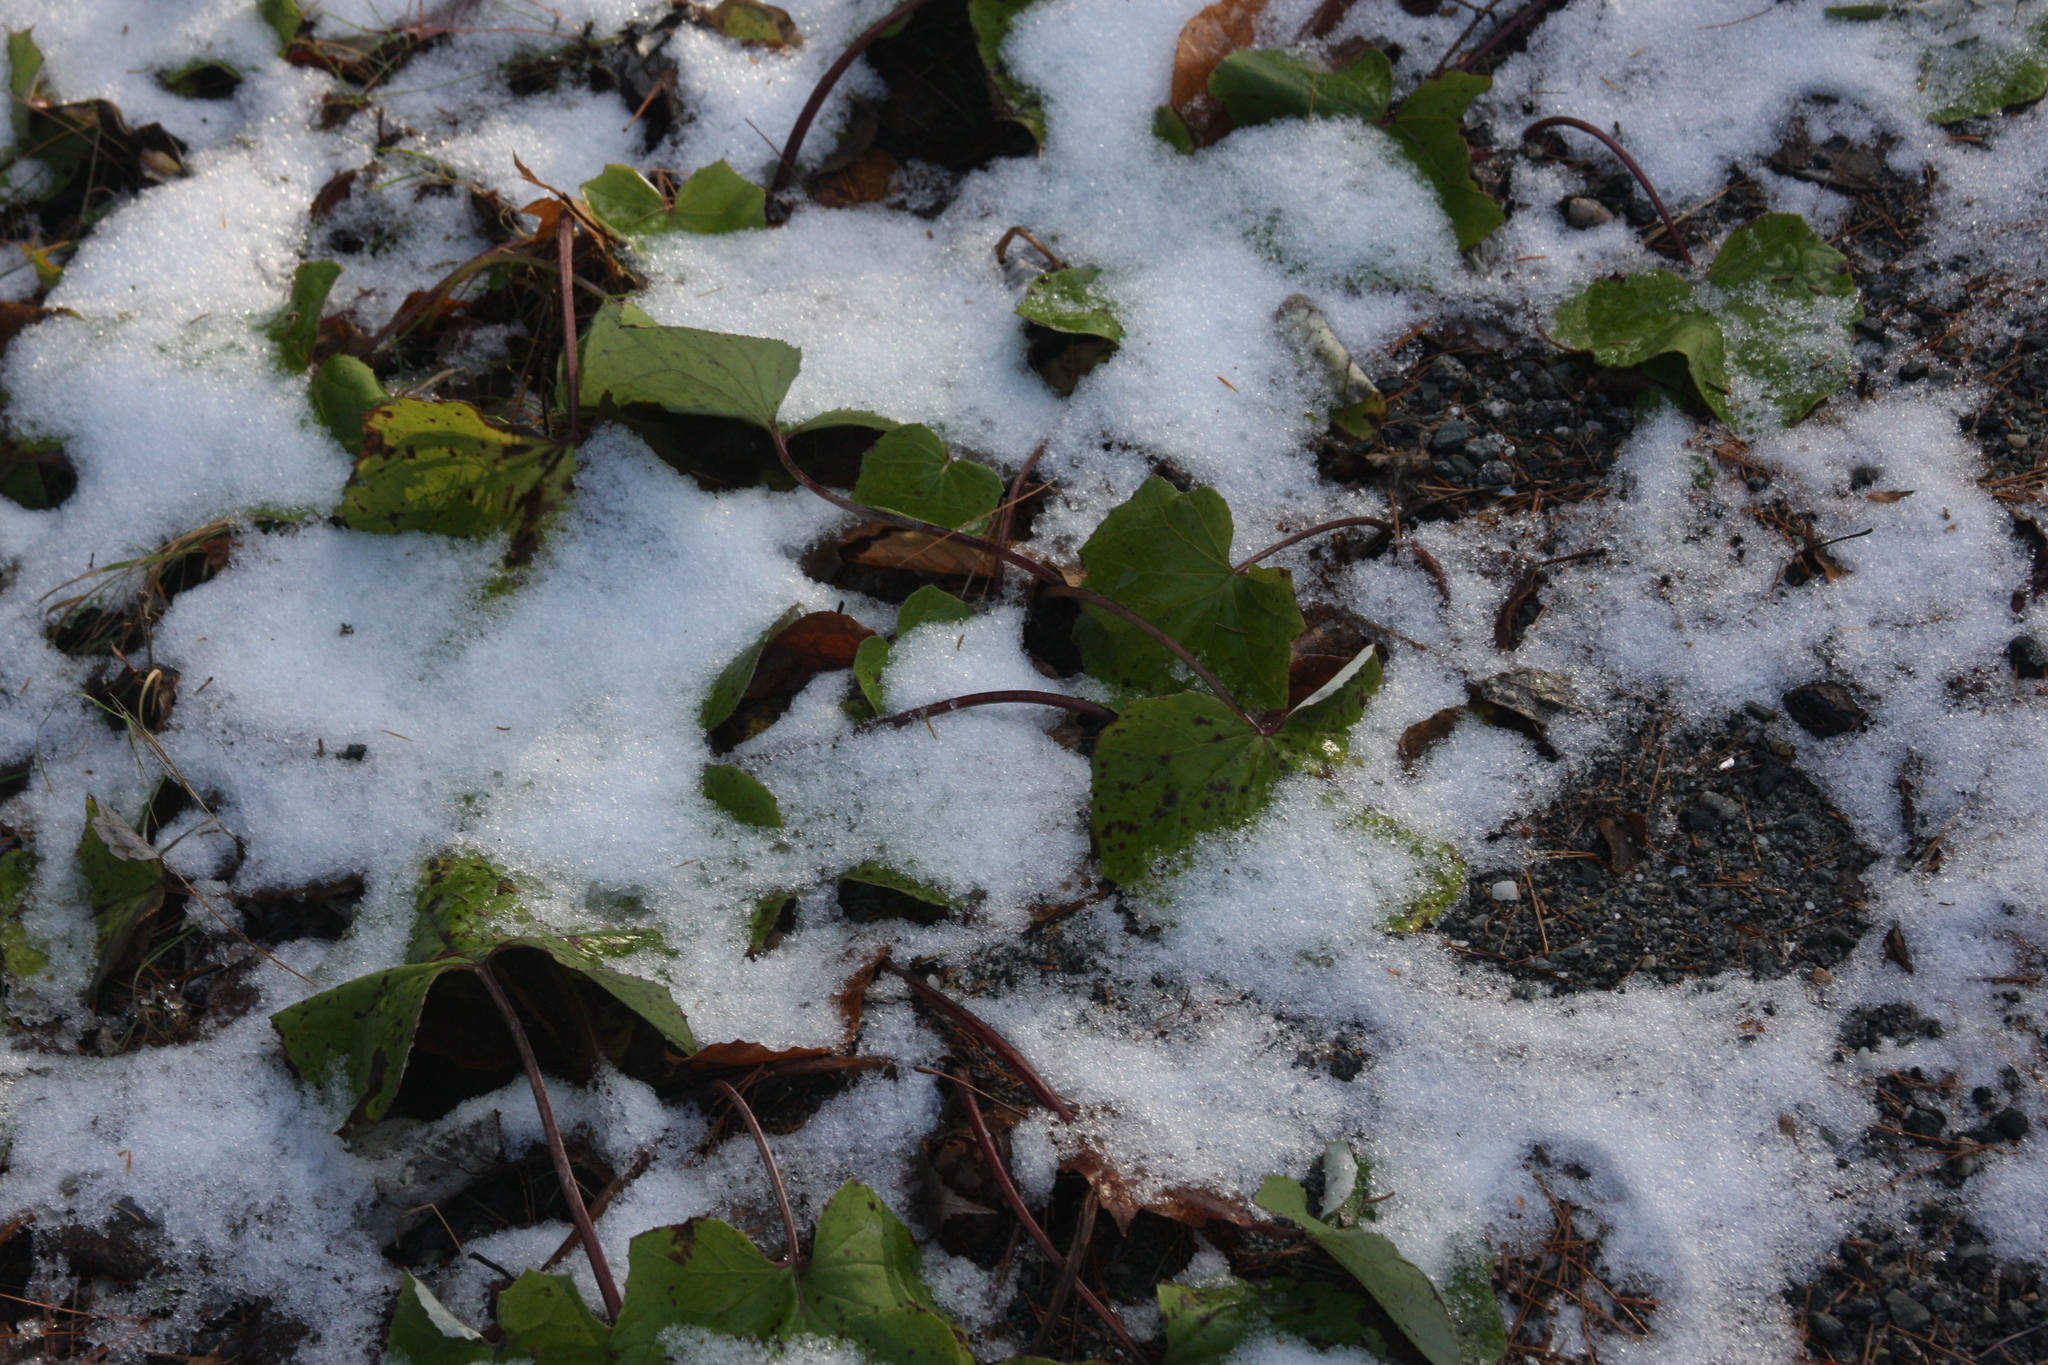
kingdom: Plantae
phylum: Tracheophyta
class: Magnoliopsida
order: Asterales
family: Asteraceae
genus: Tussilago
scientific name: Tussilago farfara
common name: Coltsfoot
